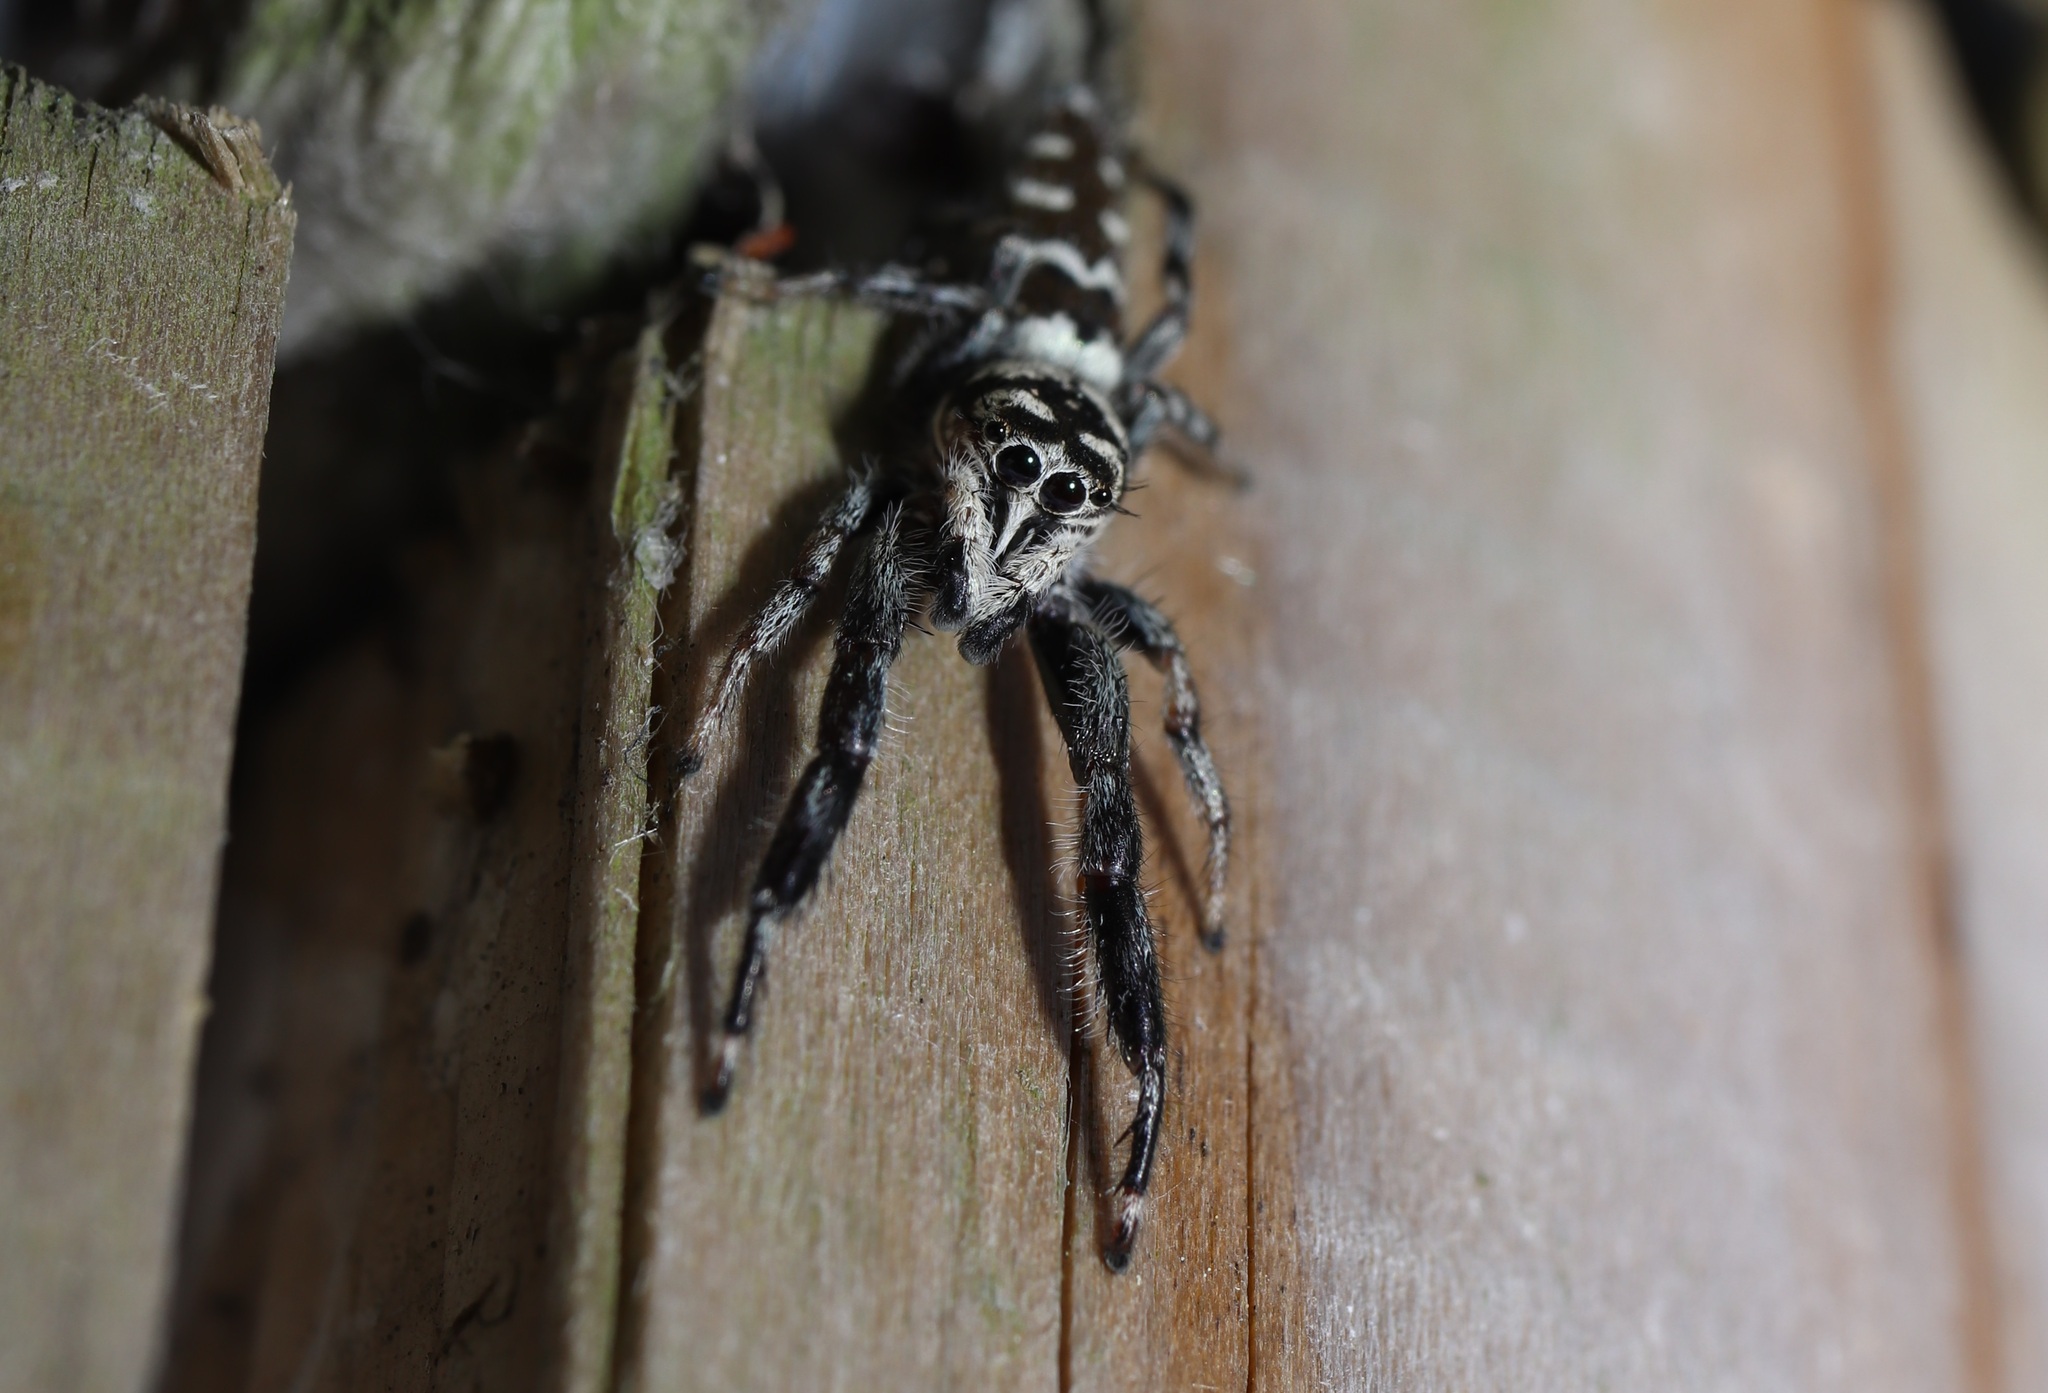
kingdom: Animalia
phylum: Arthropoda
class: Arachnida
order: Araneae
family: Salticidae
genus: Mendoza
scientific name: Mendoza elongata
